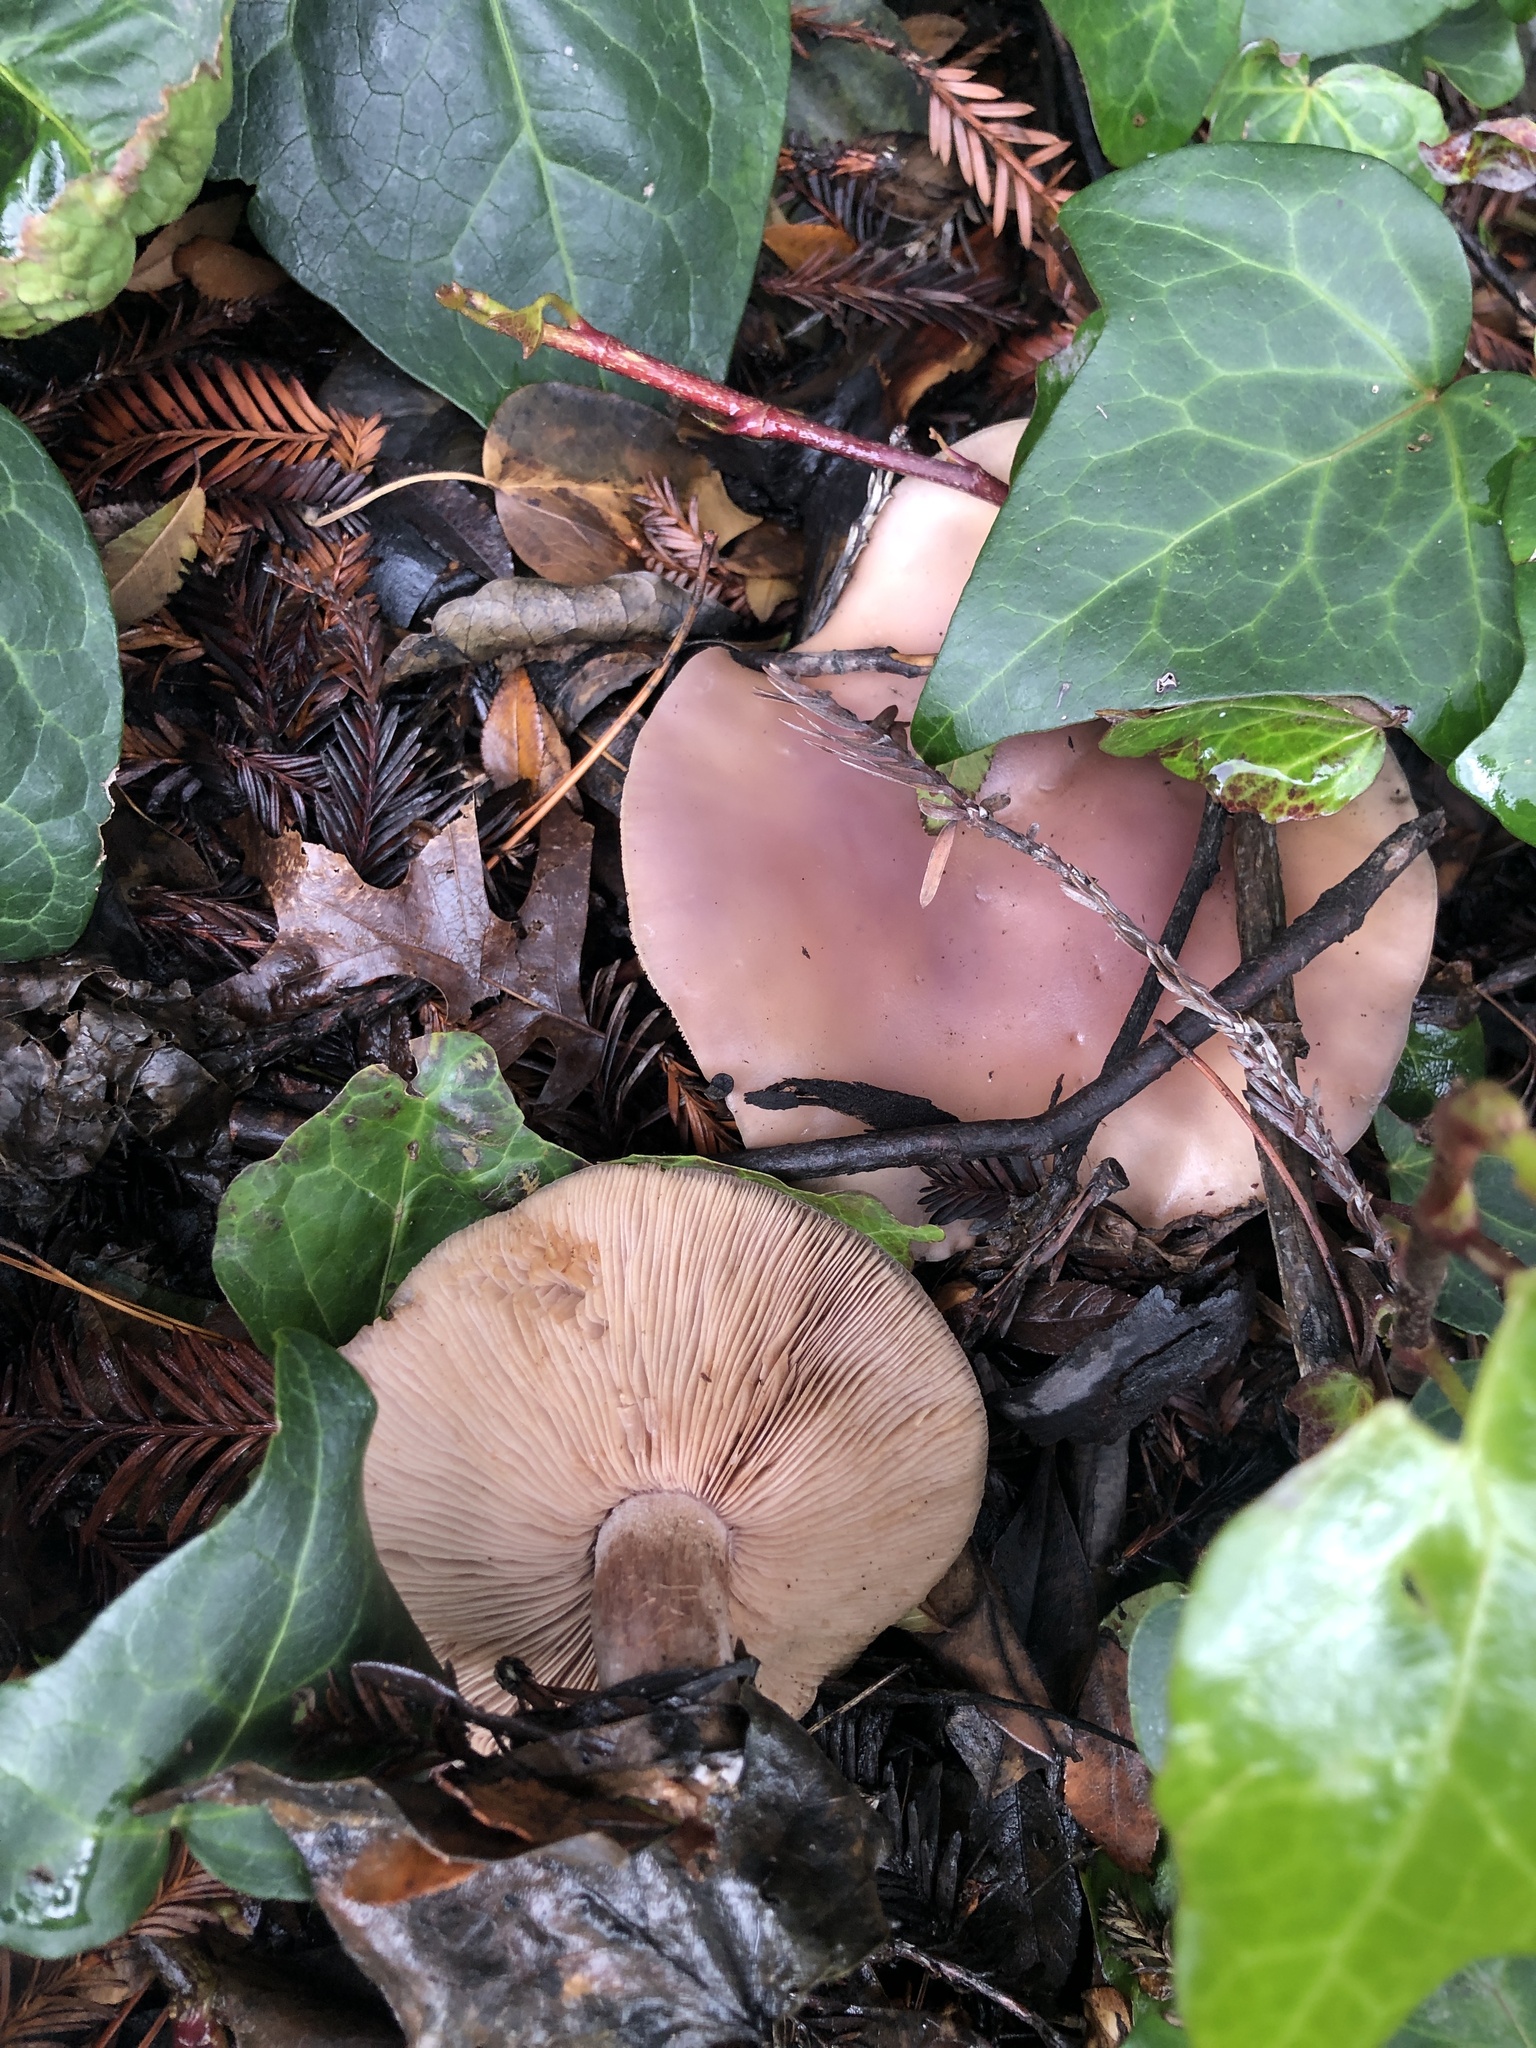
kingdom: Fungi
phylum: Basidiomycota
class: Agaricomycetes
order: Agaricales
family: Tricholomataceae
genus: Collybia
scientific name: Collybia
